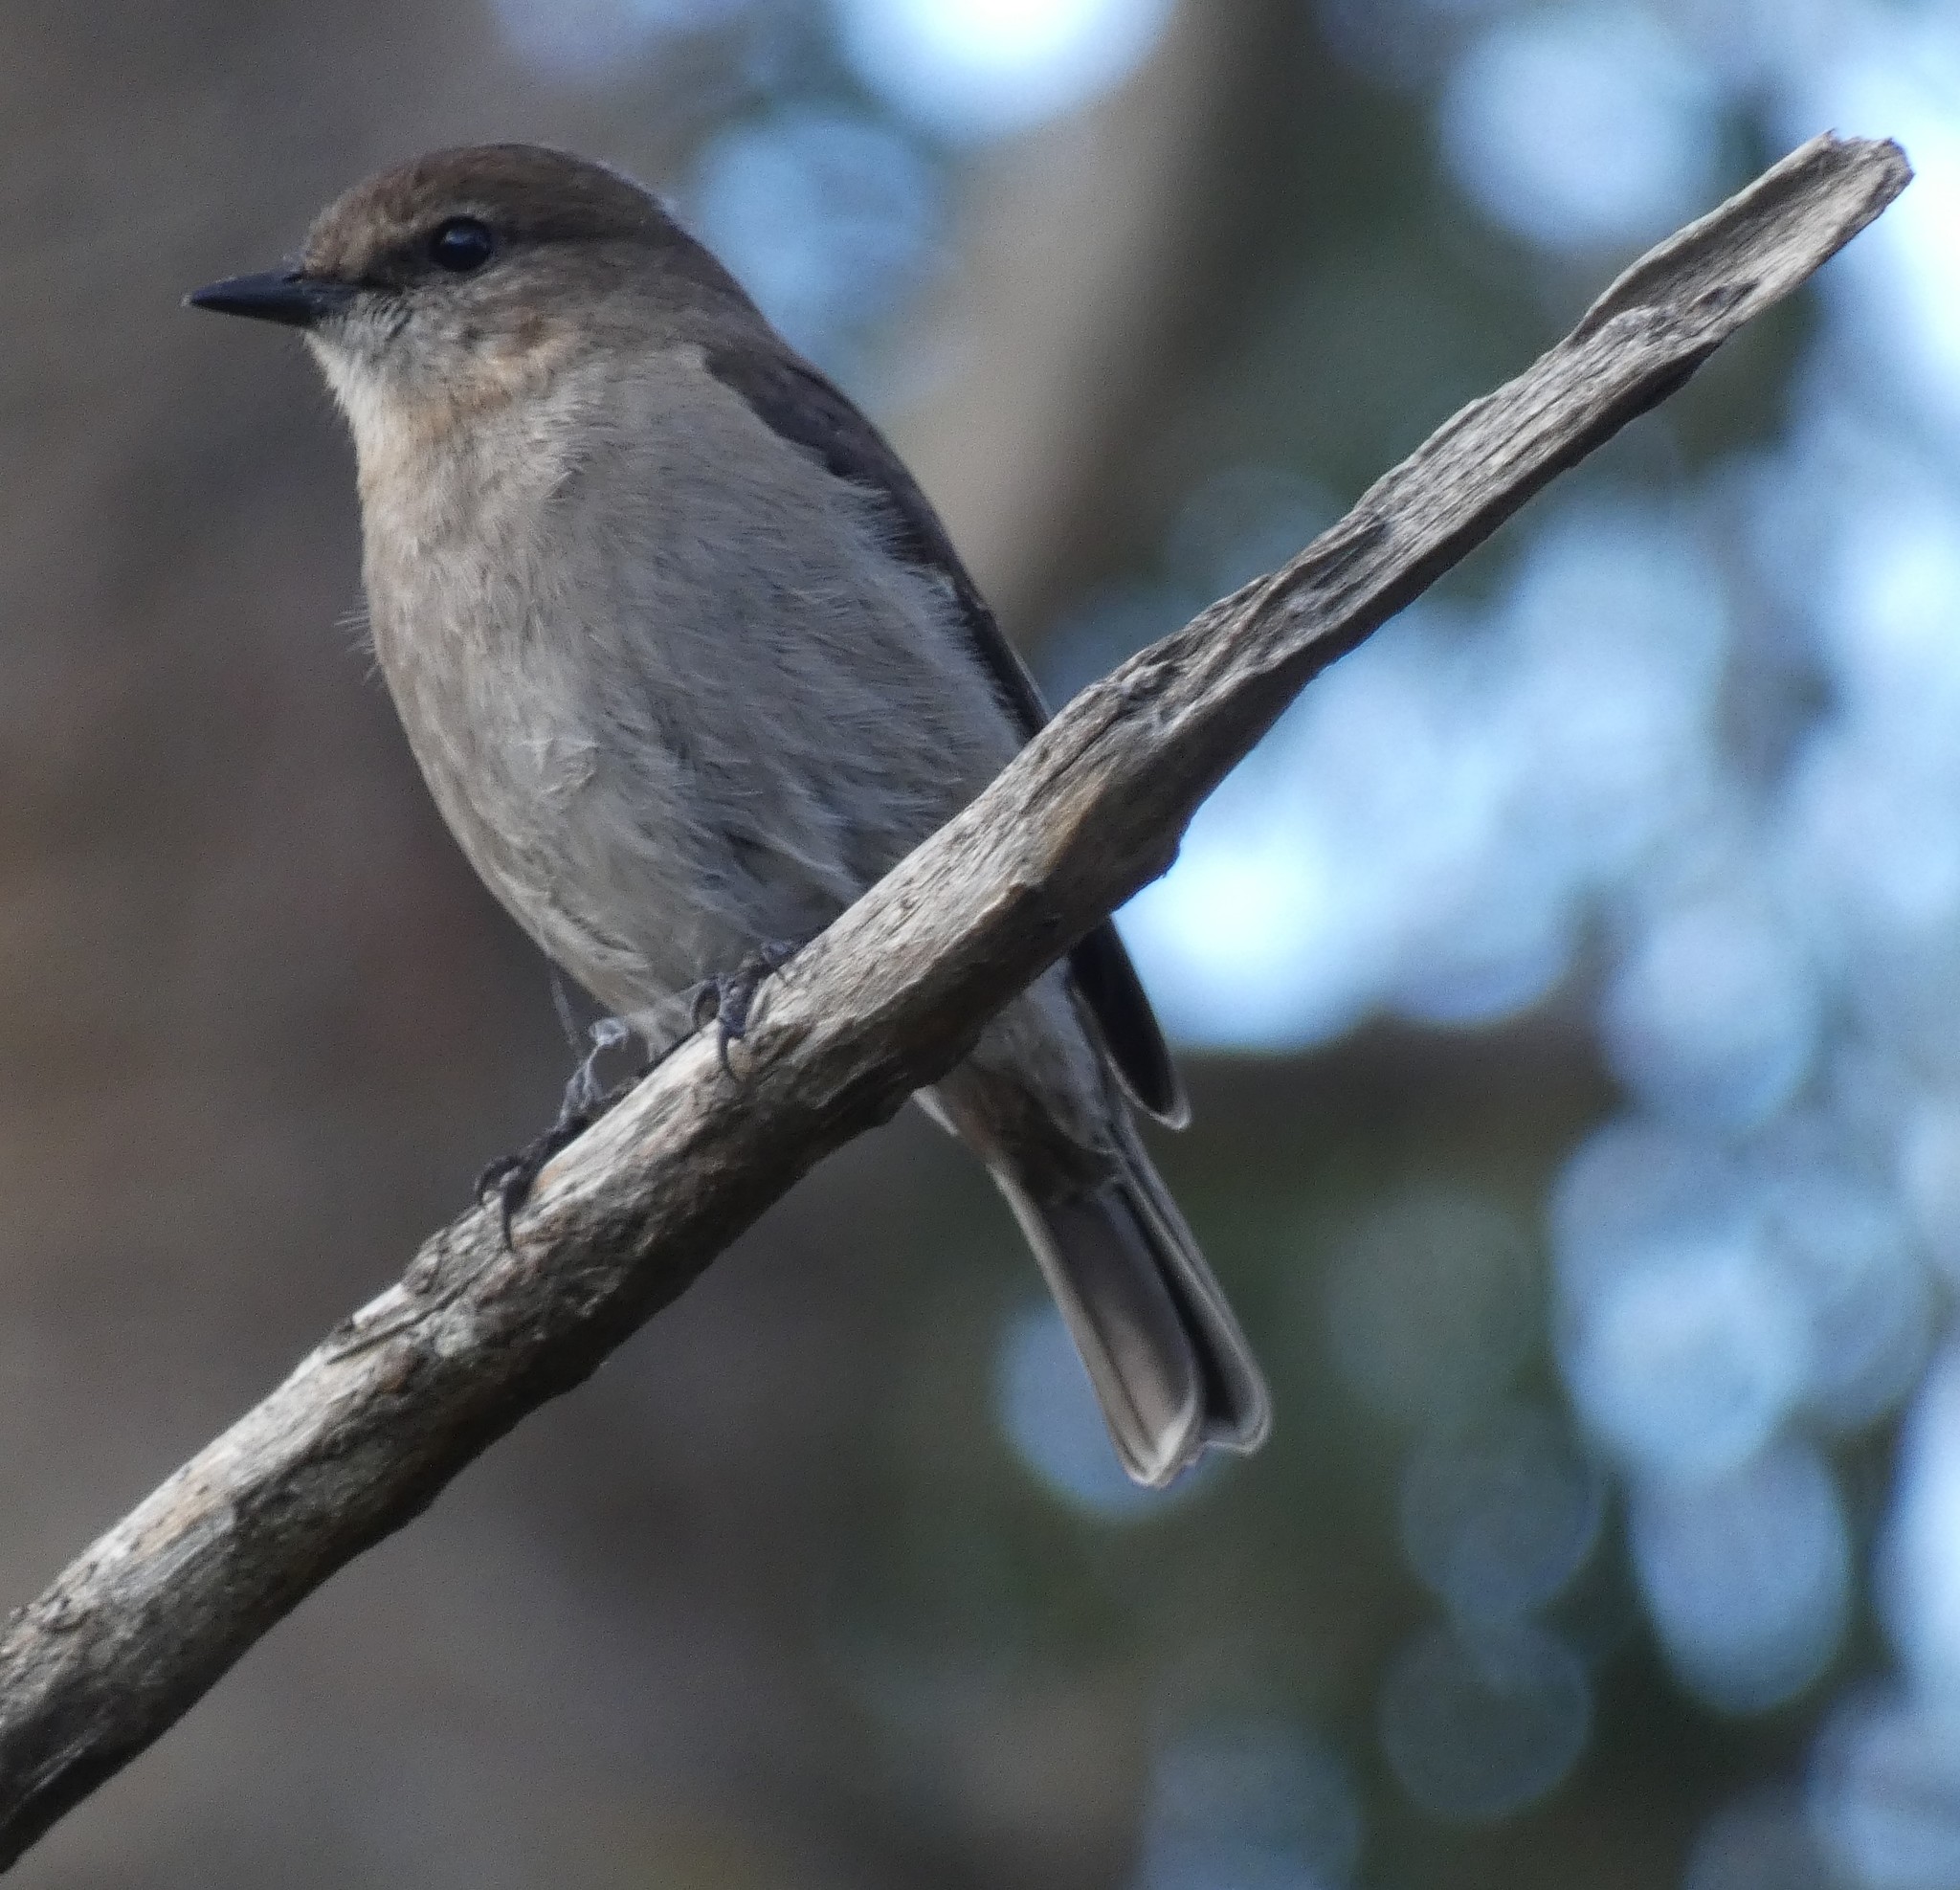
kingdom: Animalia
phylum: Chordata
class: Aves
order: Passeriformes
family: Petroicidae
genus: Melanodryas
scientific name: Melanodryas vittata
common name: Dusky robin
